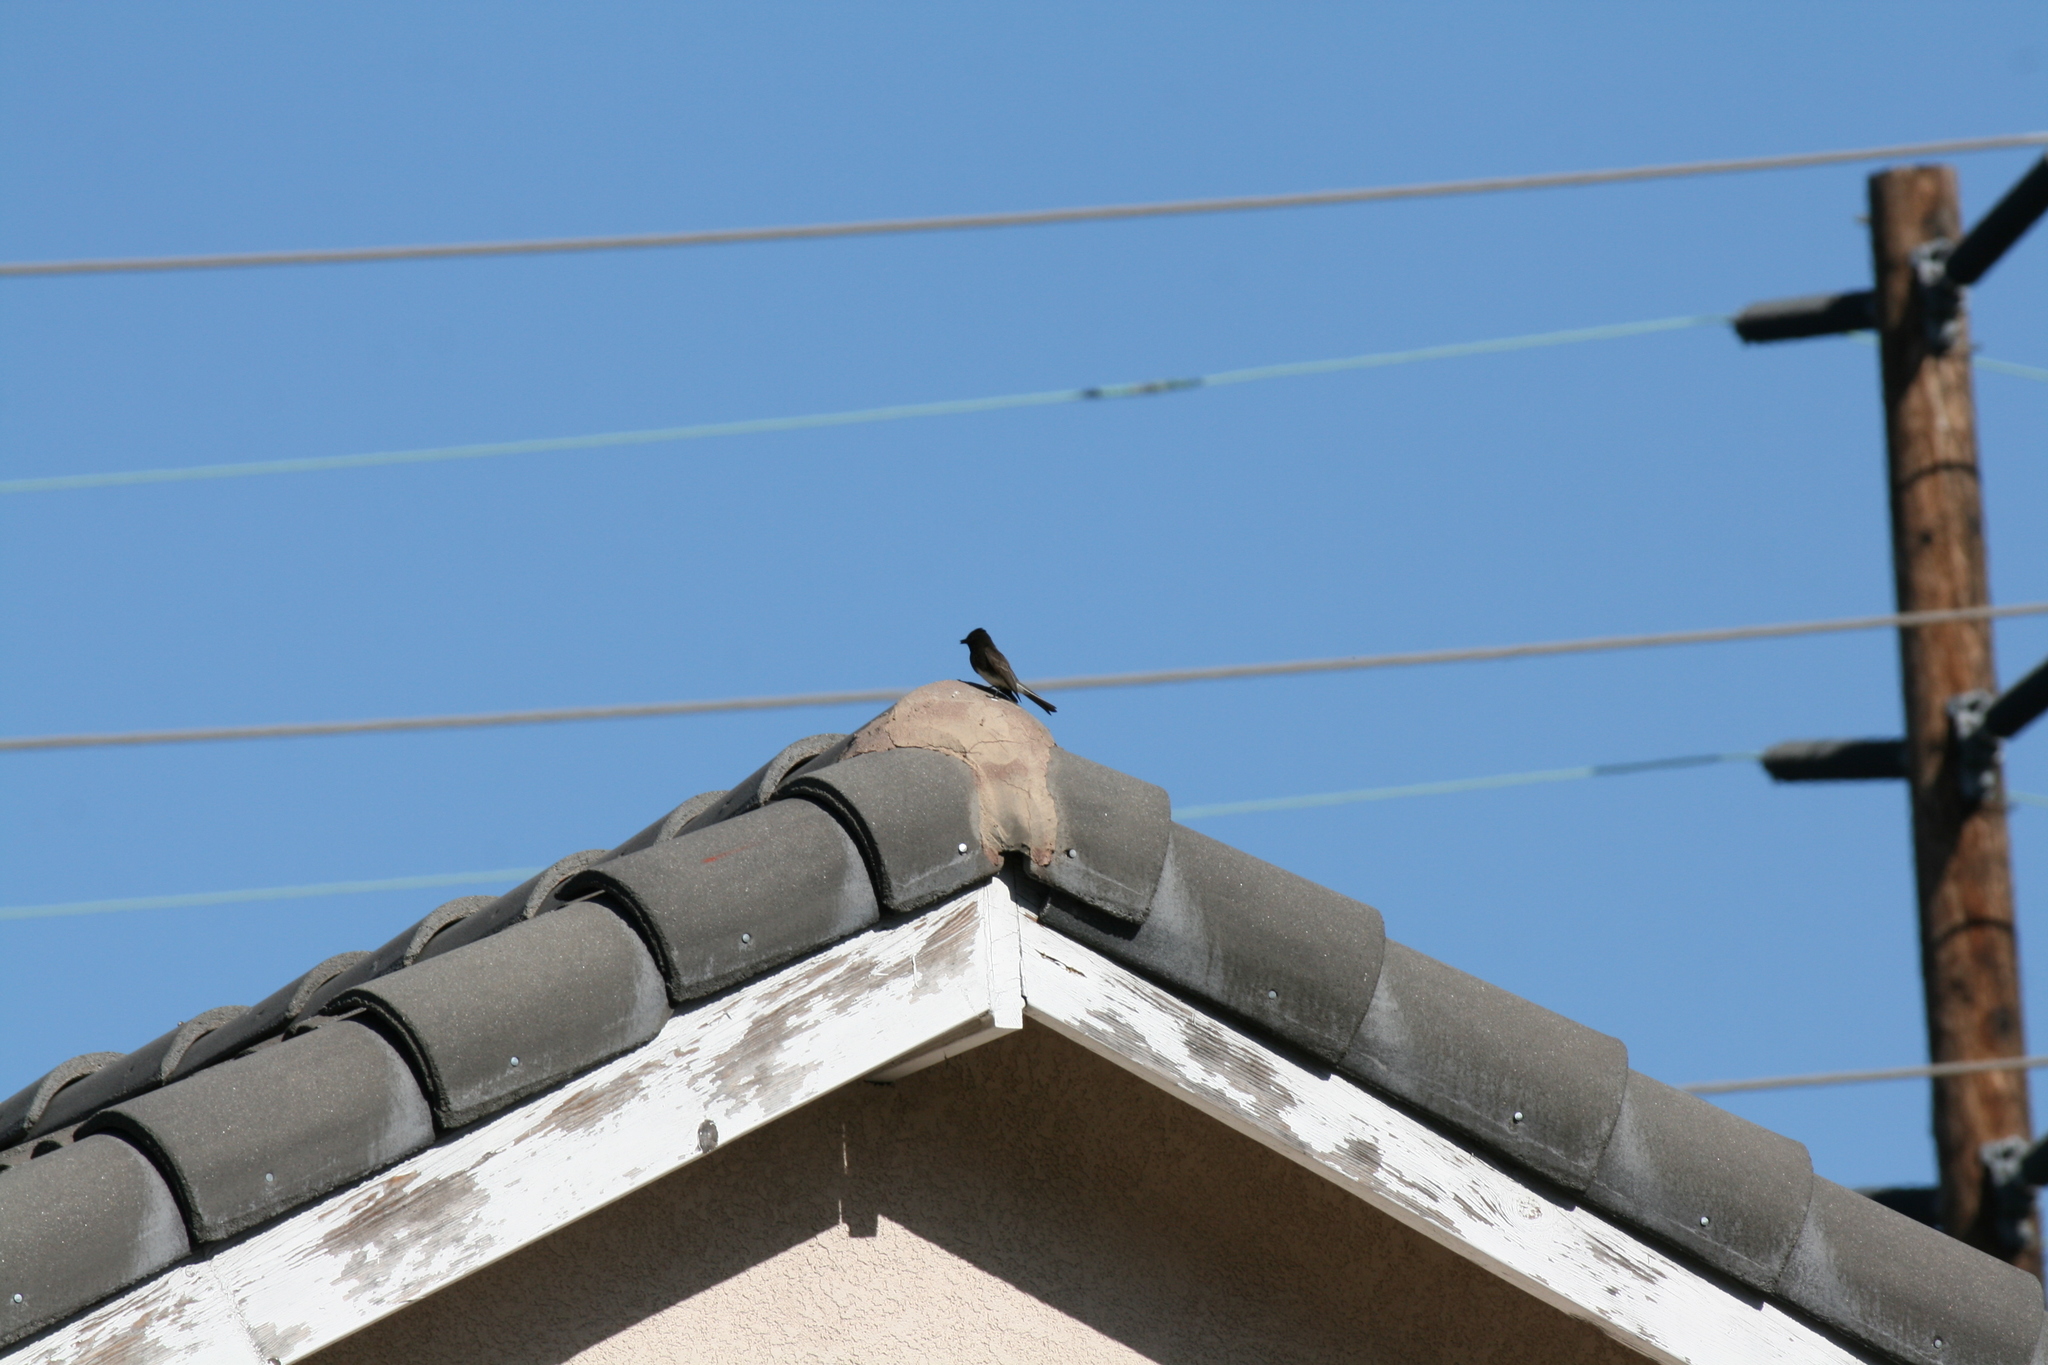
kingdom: Animalia
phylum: Chordata
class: Aves
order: Passeriformes
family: Tyrannidae
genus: Sayornis
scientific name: Sayornis nigricans
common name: Black phoebe
